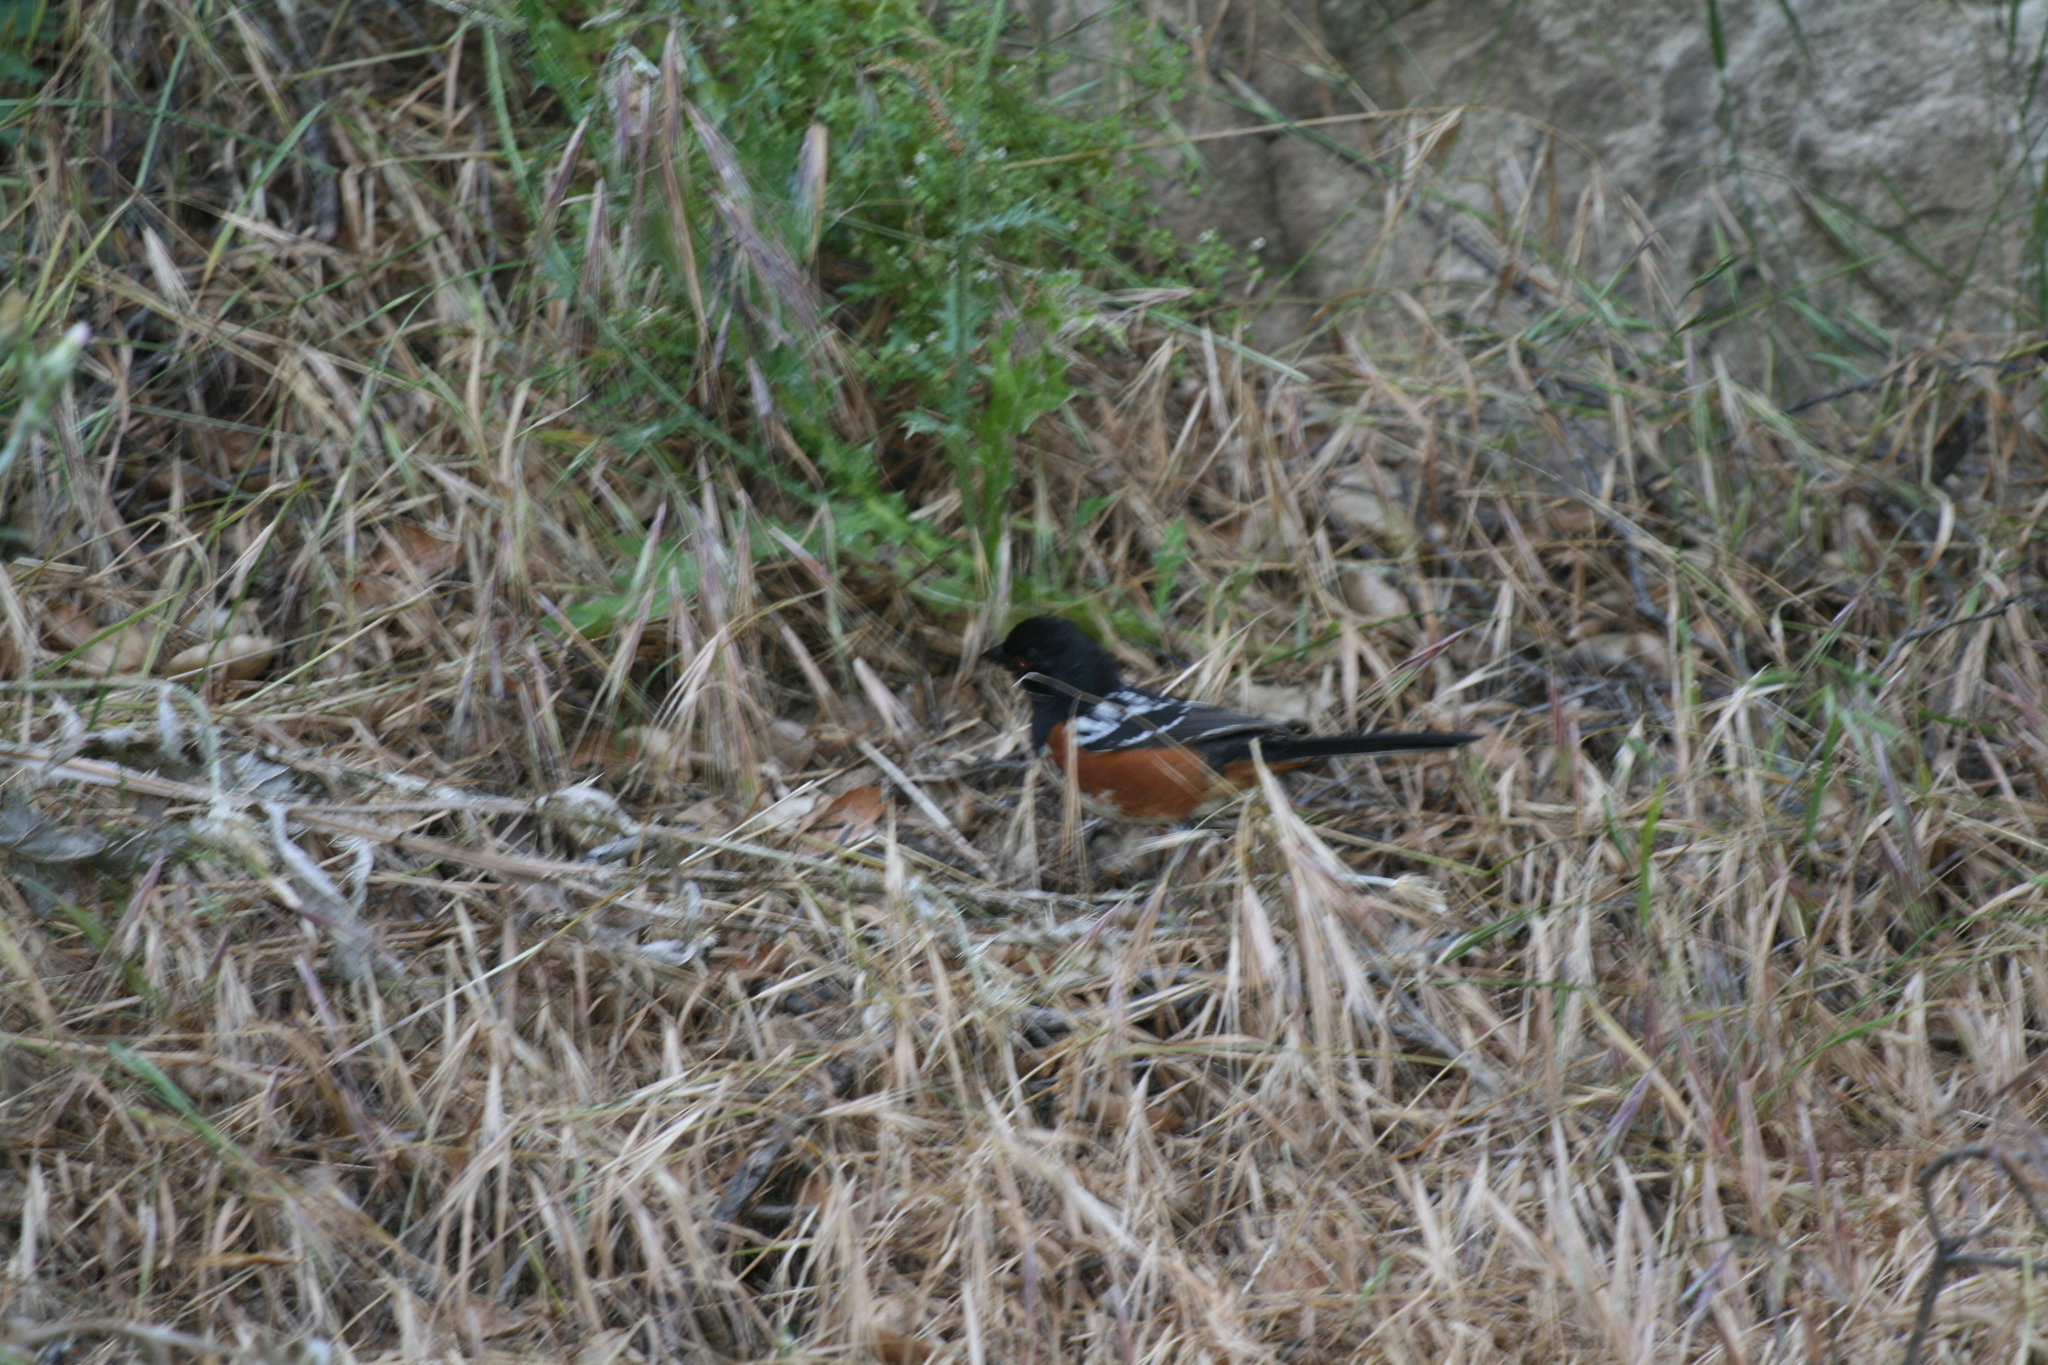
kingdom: Animalia
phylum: Chordata
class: Aves
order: Passeriformes
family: Passerellidae
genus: Pipilo
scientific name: Pipilo maculatus
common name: Spotted towhee
